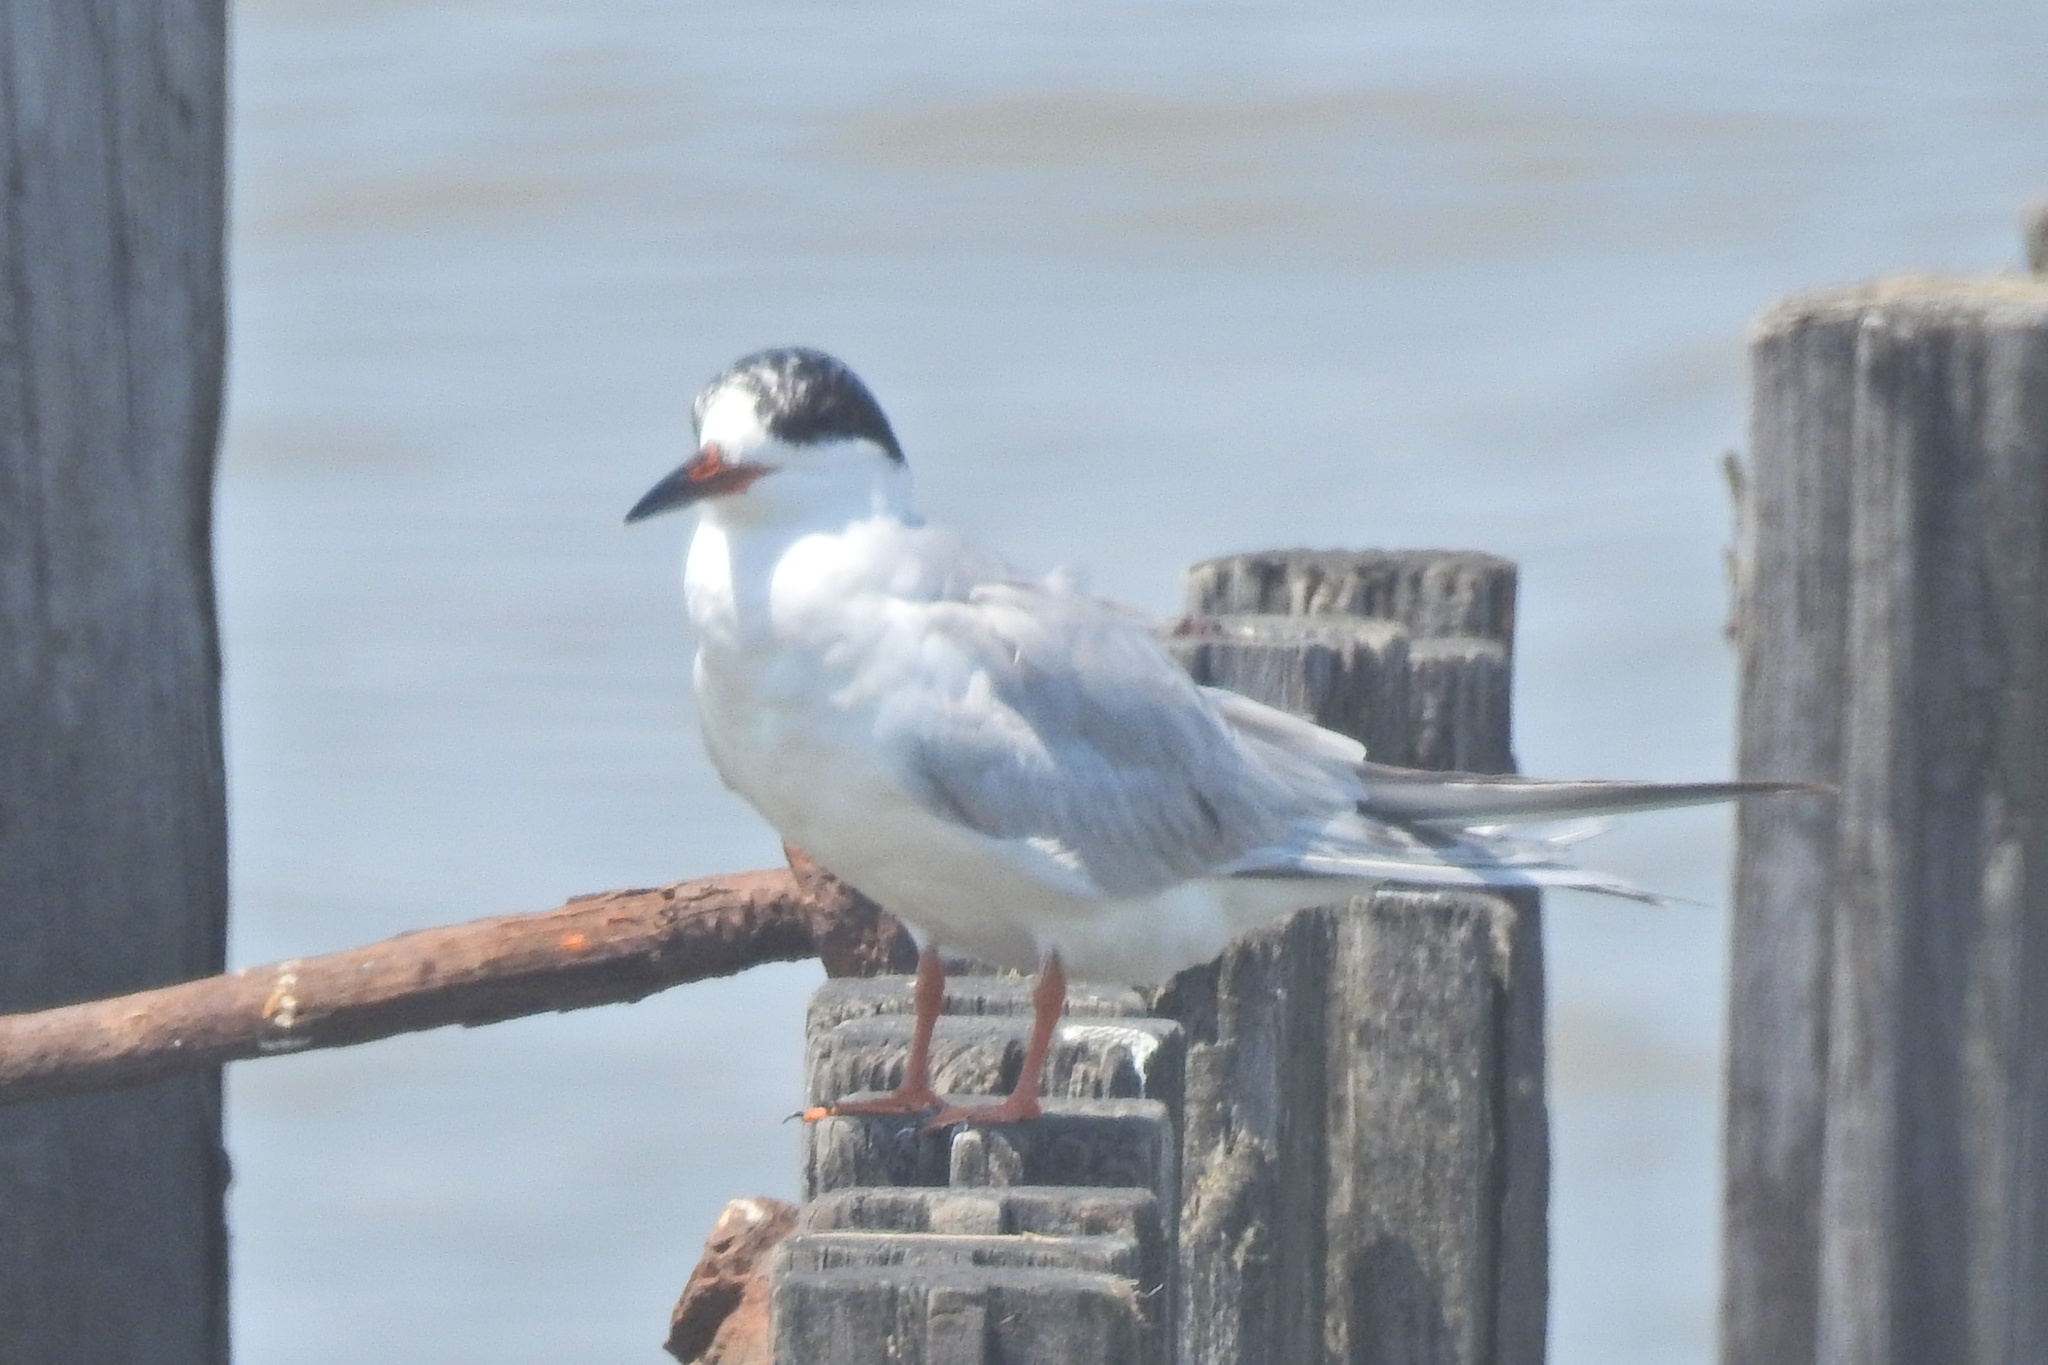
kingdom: Animalia
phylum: Chordata
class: Aves
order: Charadriiformes
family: Laridae
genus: Sterna
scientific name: Sterna forsteri
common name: Forster's tern
